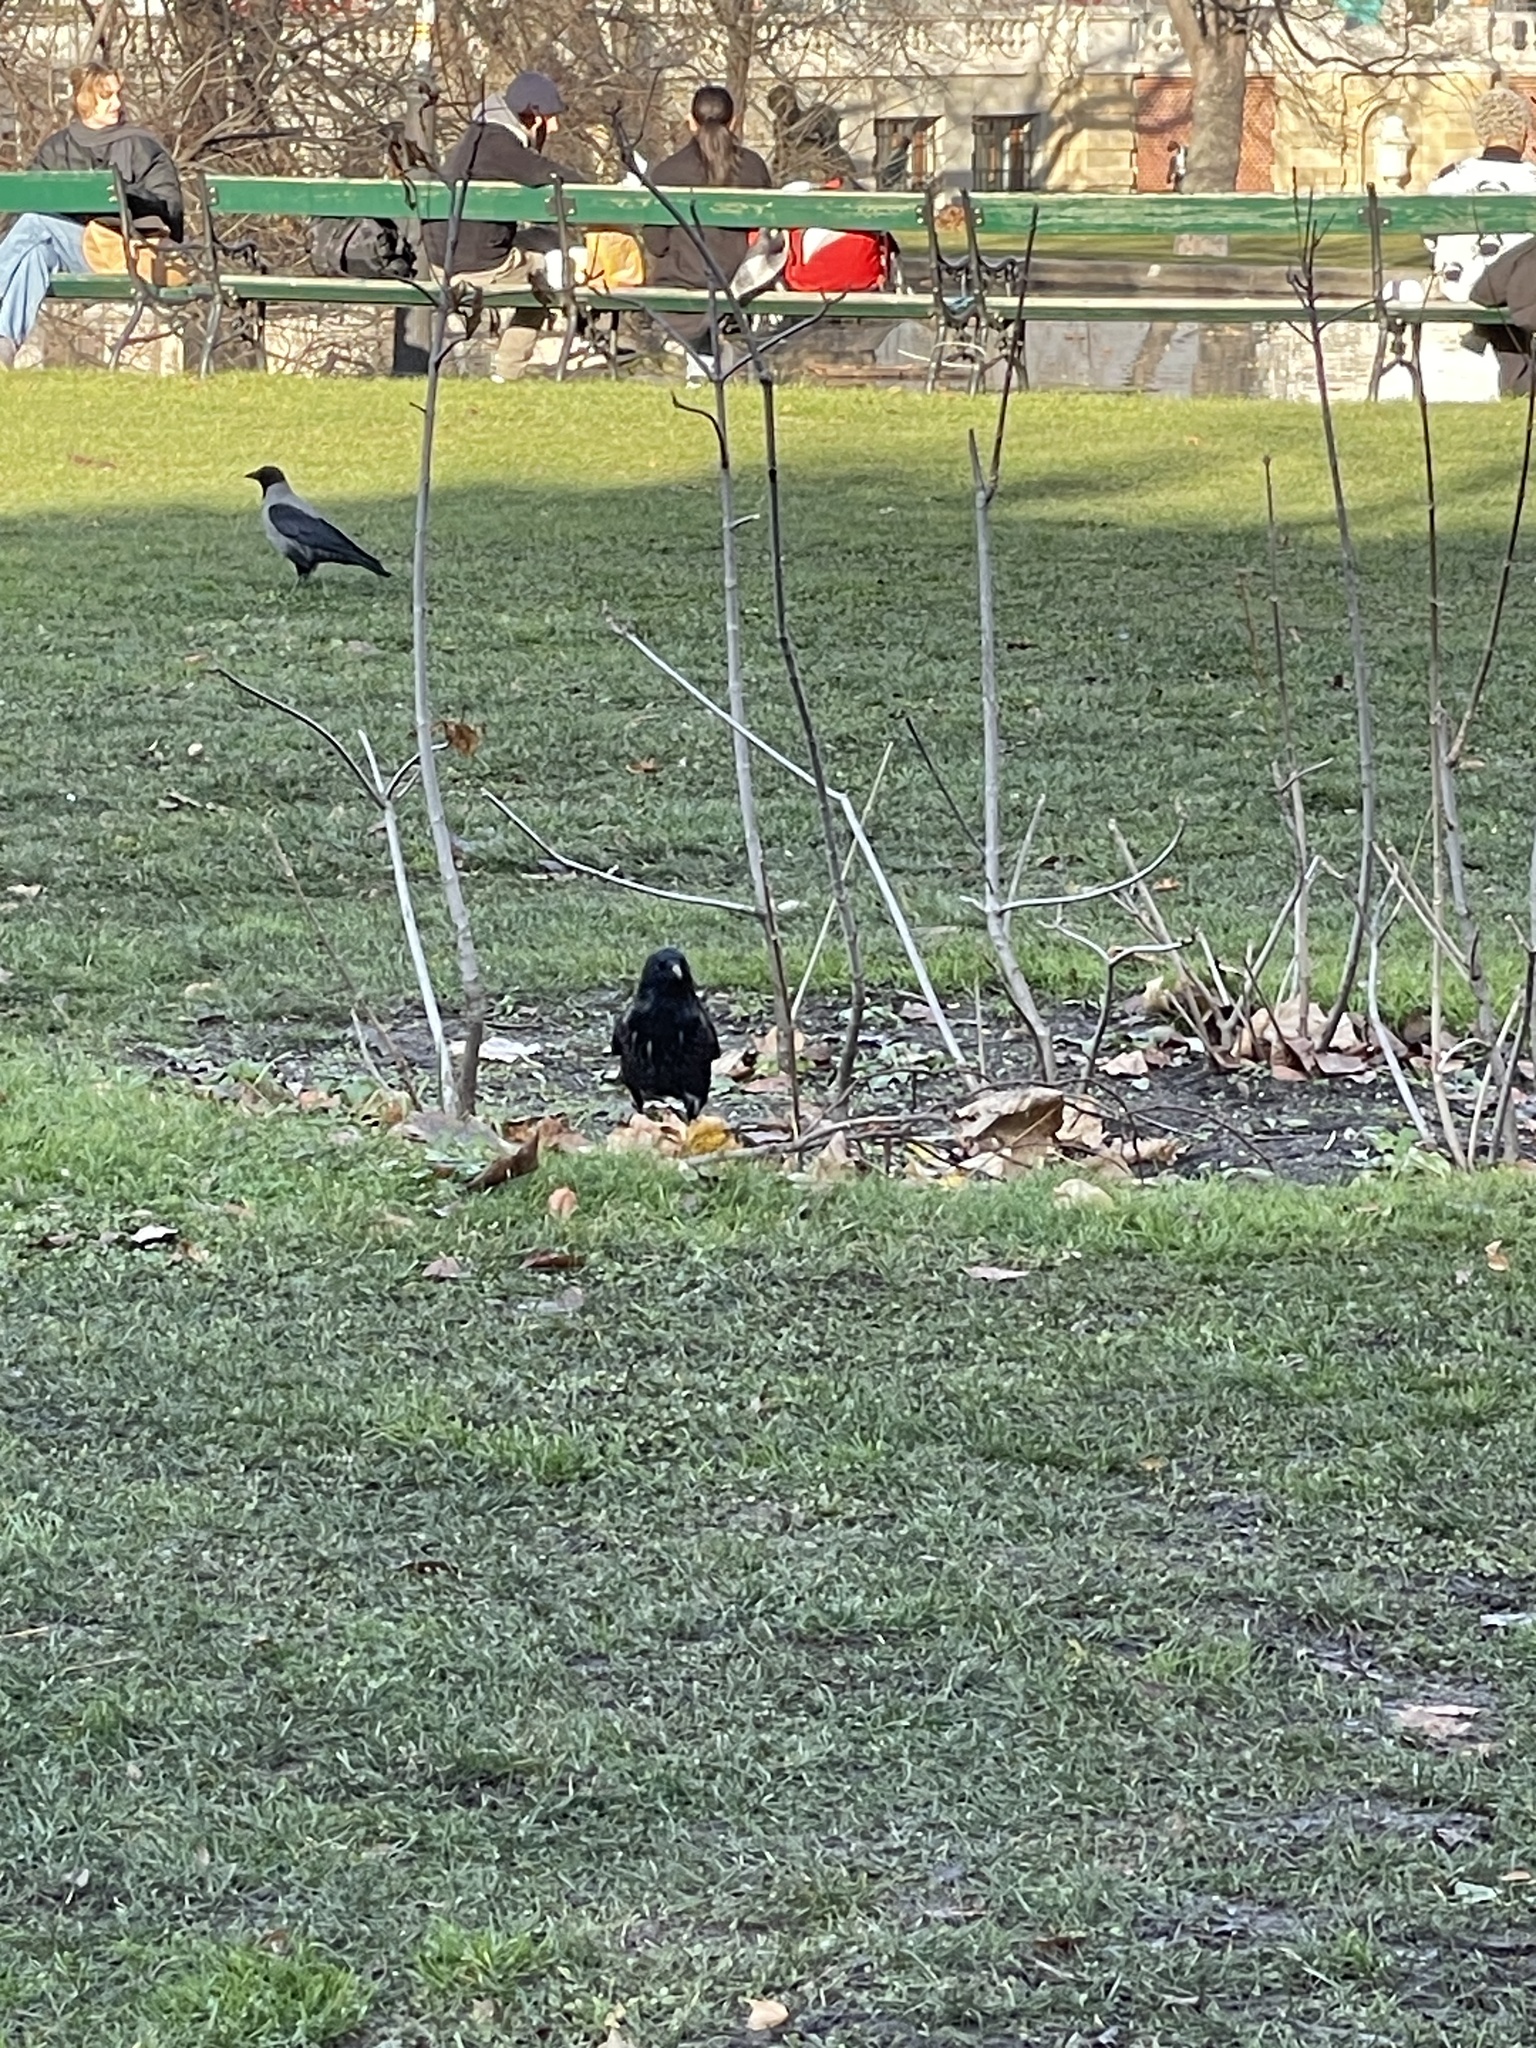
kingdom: Animalia
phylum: Chordata
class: Aves
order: Passeriformes
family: Corvidae
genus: Corvus
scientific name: Corvus frugilegus
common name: Rook
